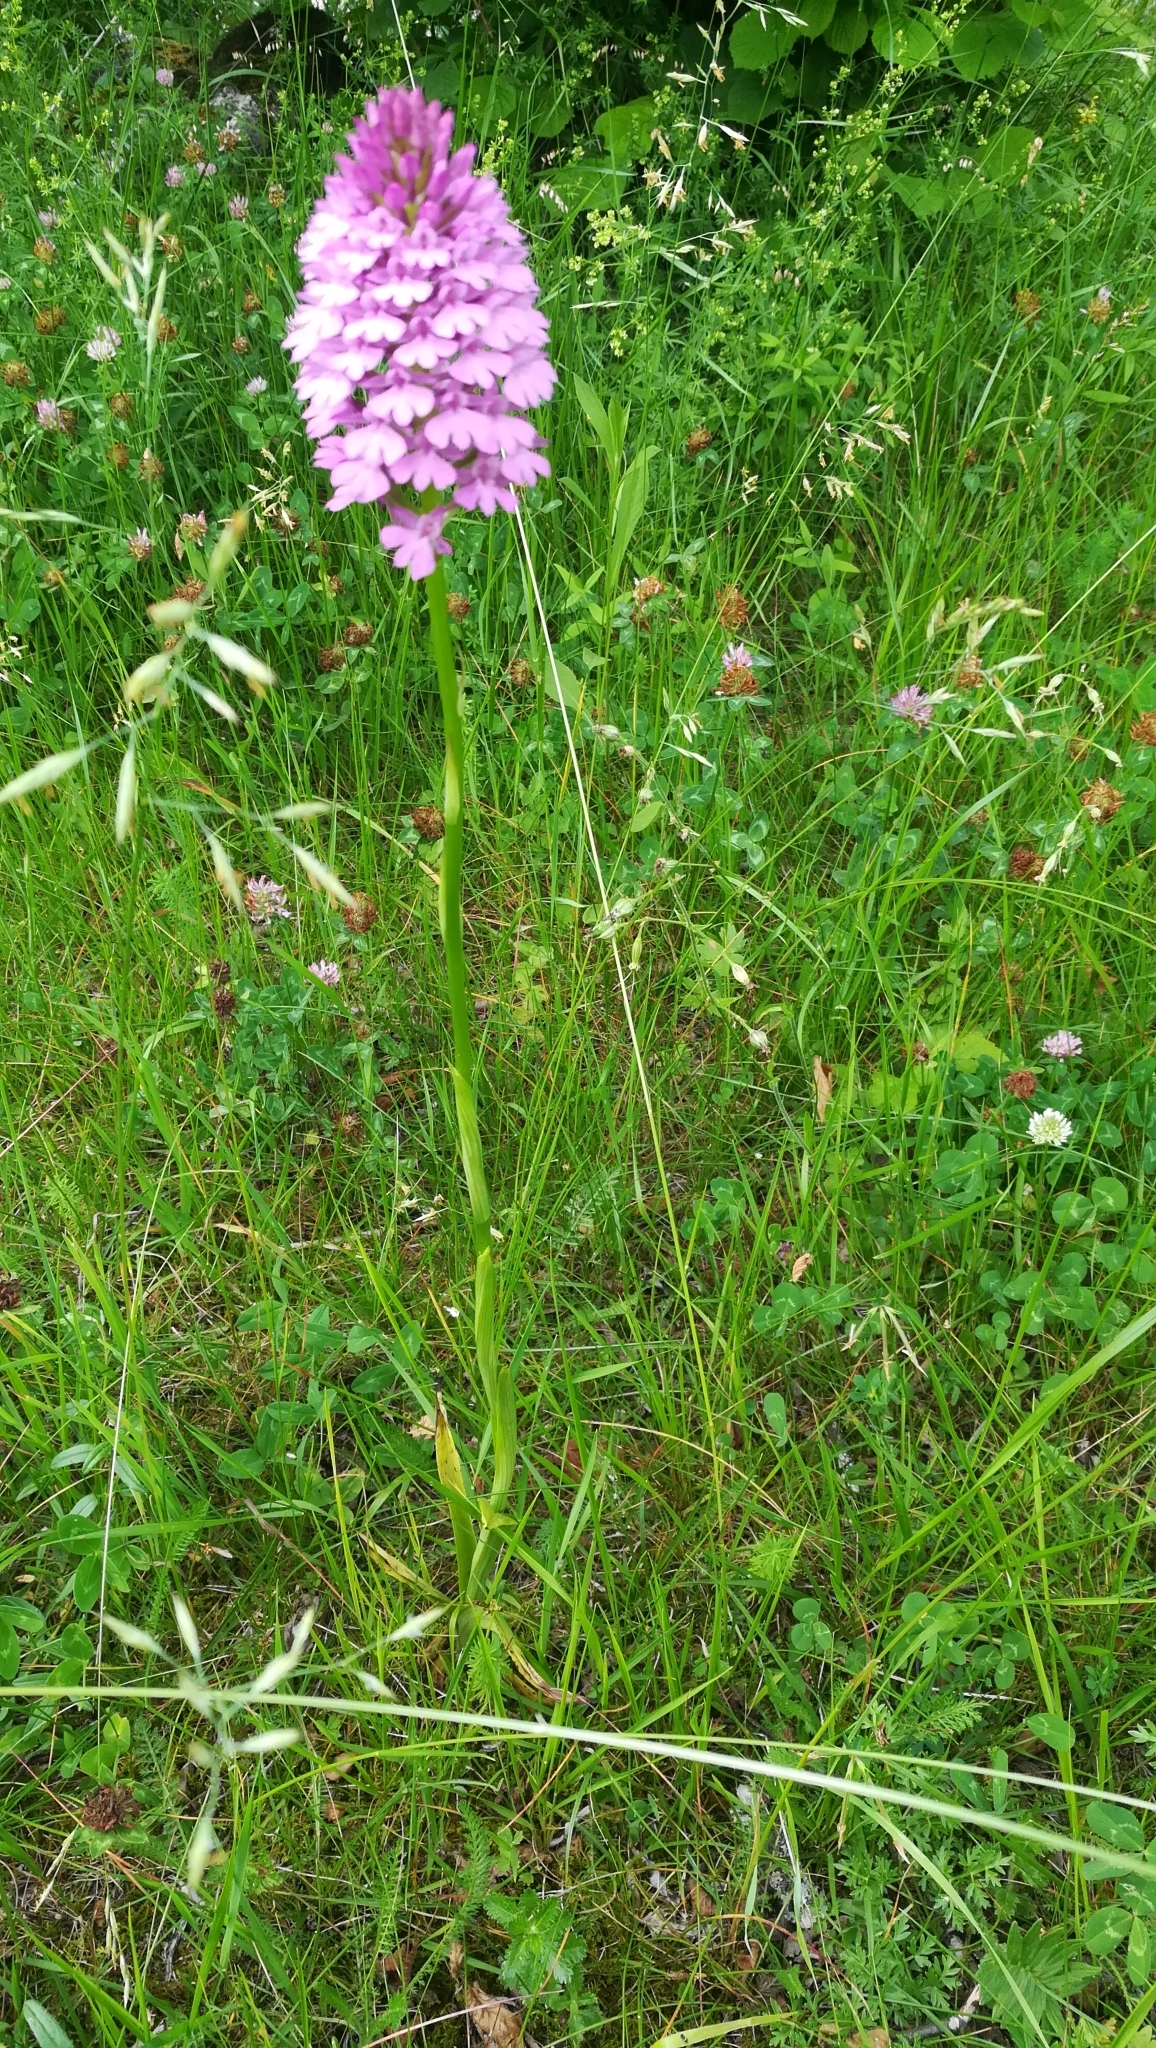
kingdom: Plantae
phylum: Tracheophyta
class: Liliopsida
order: Asparagales
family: Orchidaceae
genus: Anacamptis
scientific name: Anacamptis pyramidalis
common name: Pyramidal orchid
